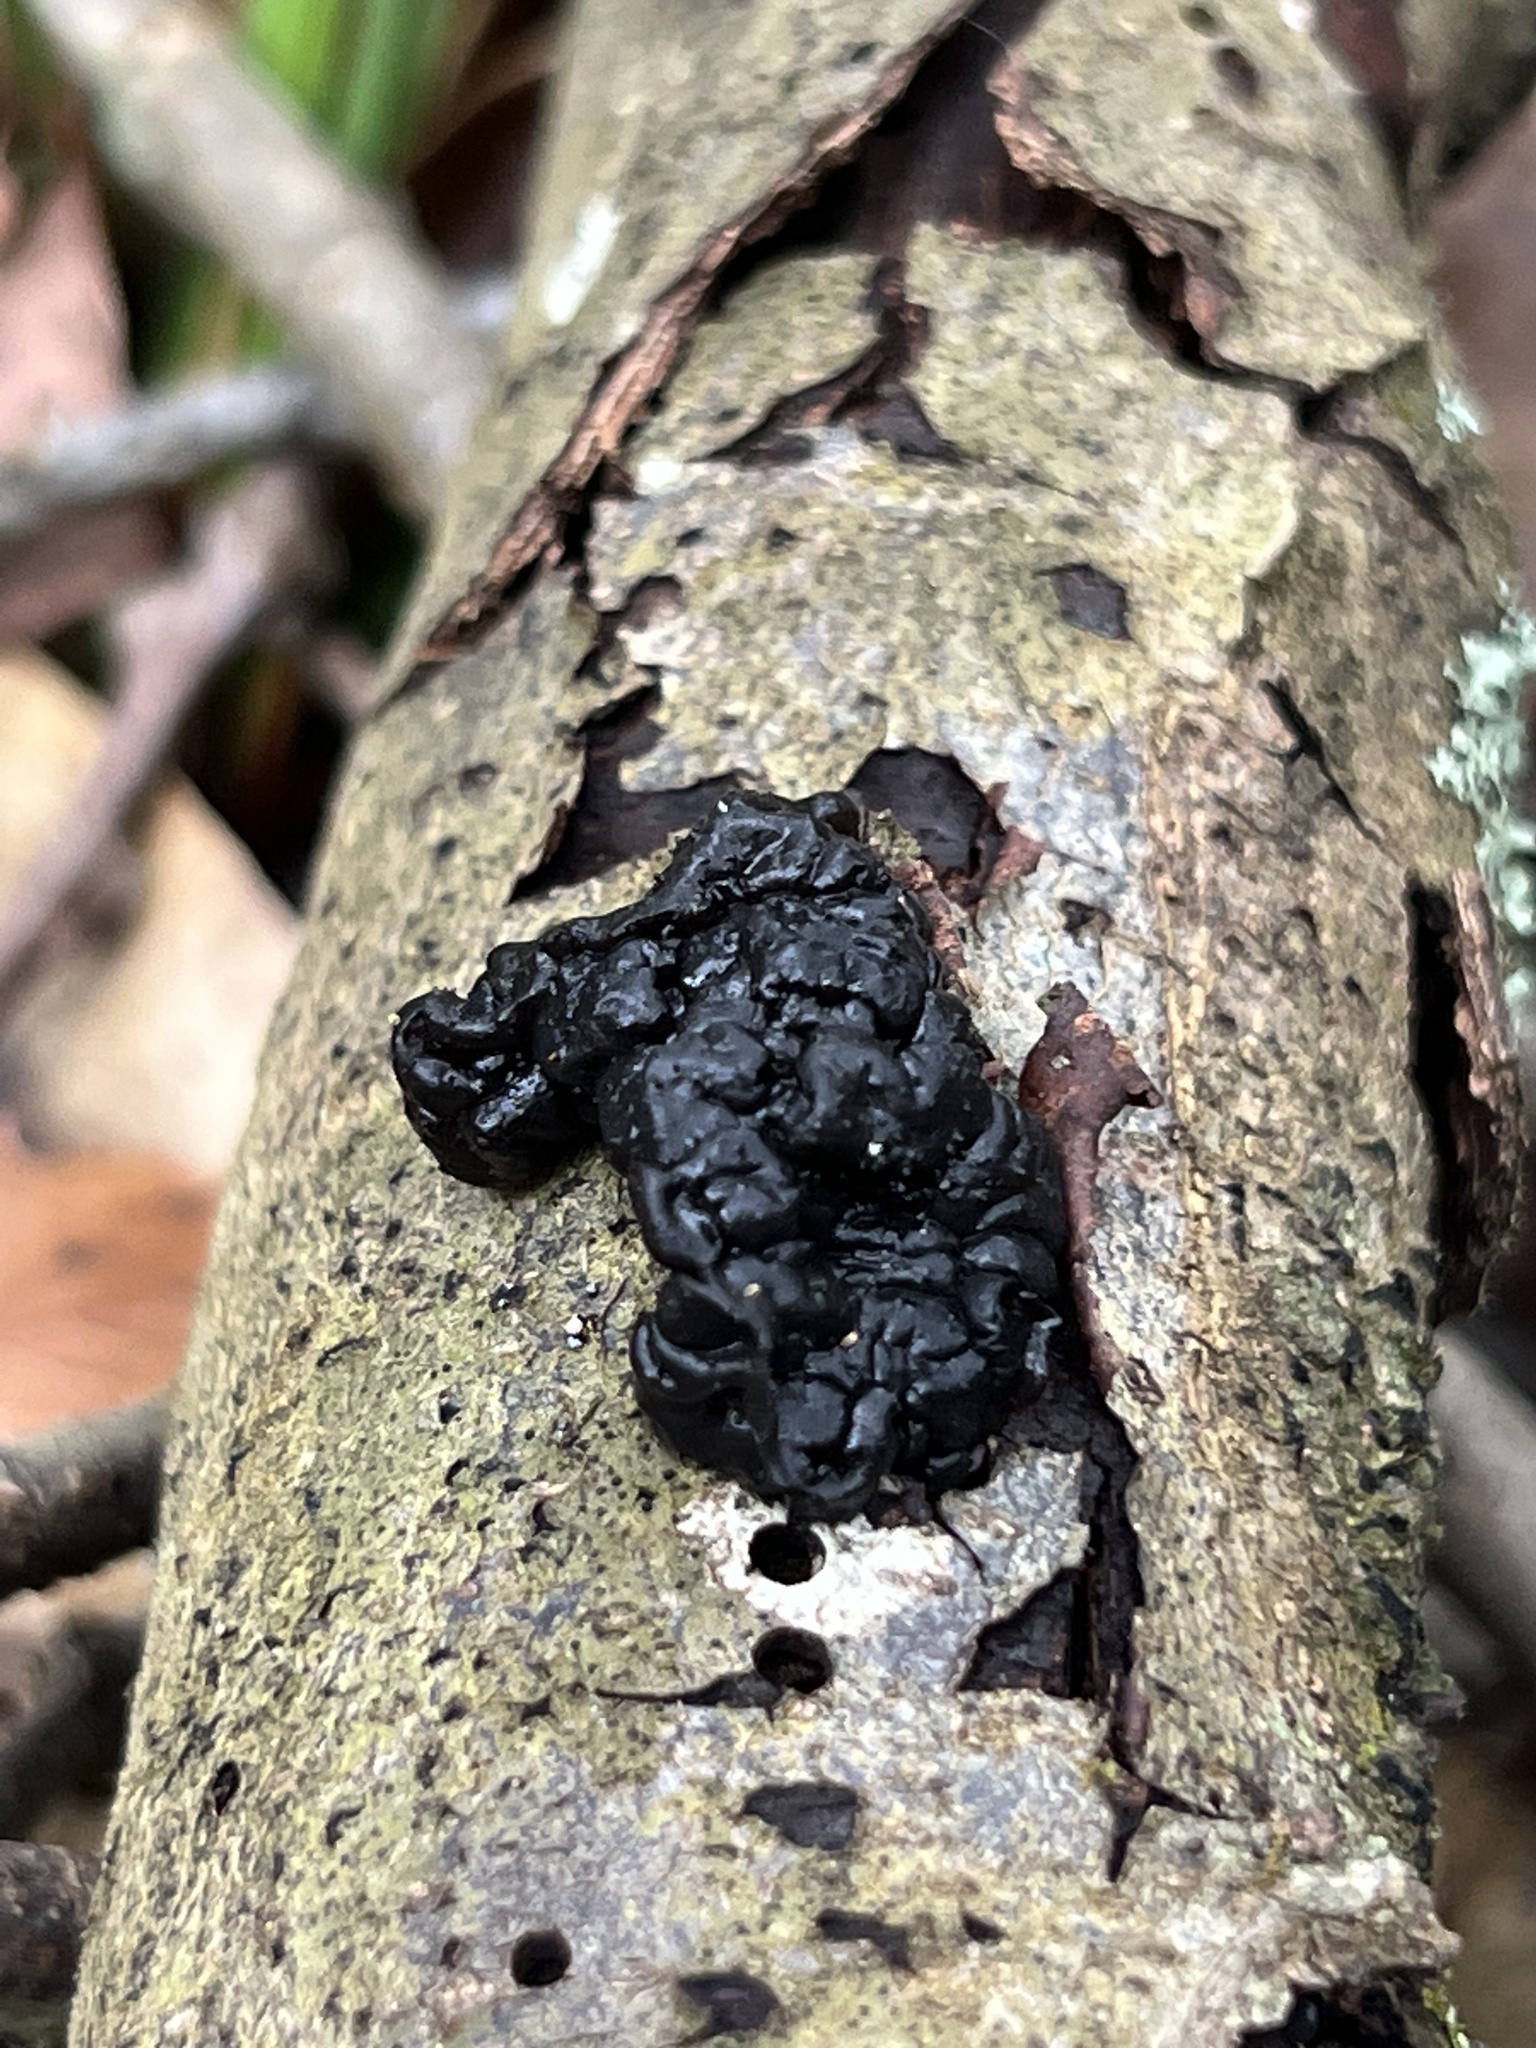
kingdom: Fungi
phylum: Basidiomycota
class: Agaricomycetes
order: Auriculariales
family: Auriculariaceae
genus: Exidia
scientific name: Exidia glandulosa
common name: Witches' butter
